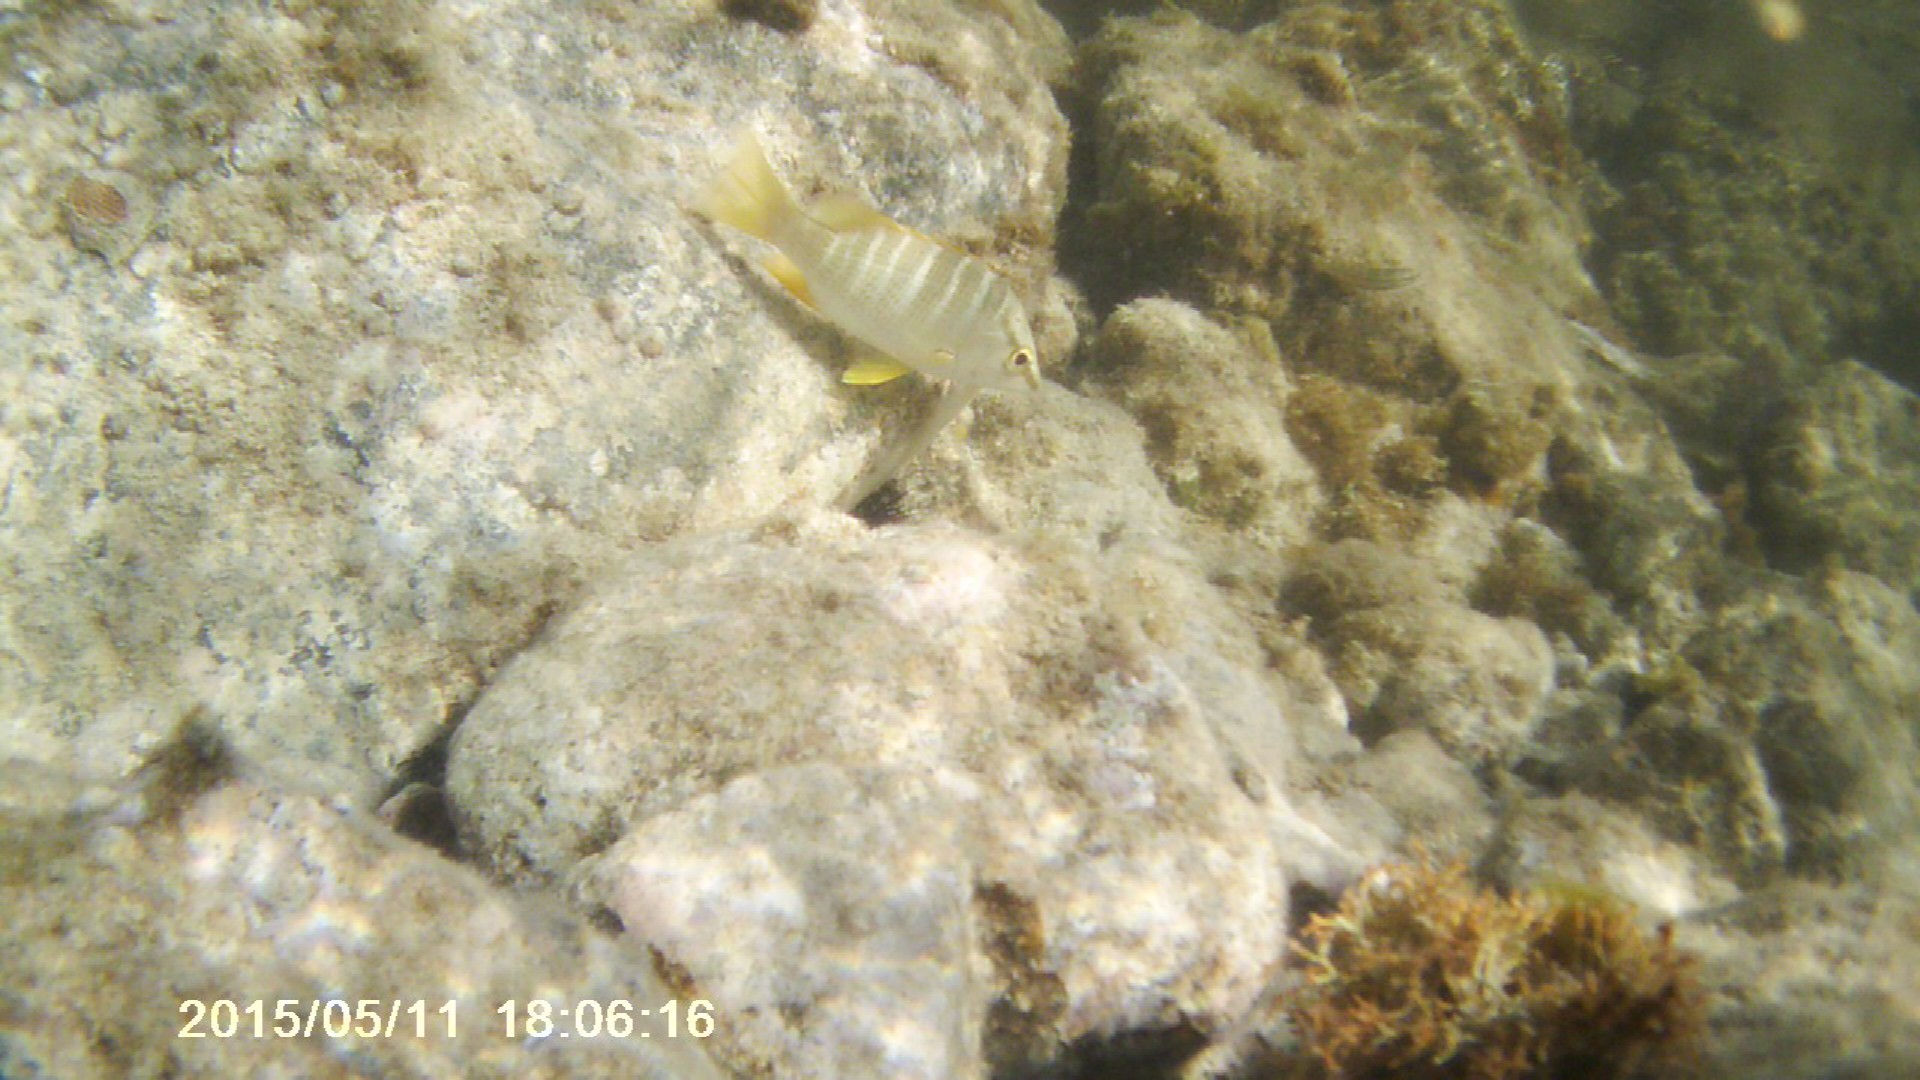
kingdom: Animalia
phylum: Chordata
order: Perciformes
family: Lutjanidae
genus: Lutjanus
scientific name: Lutjanus apodus
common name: Schoolmaster
